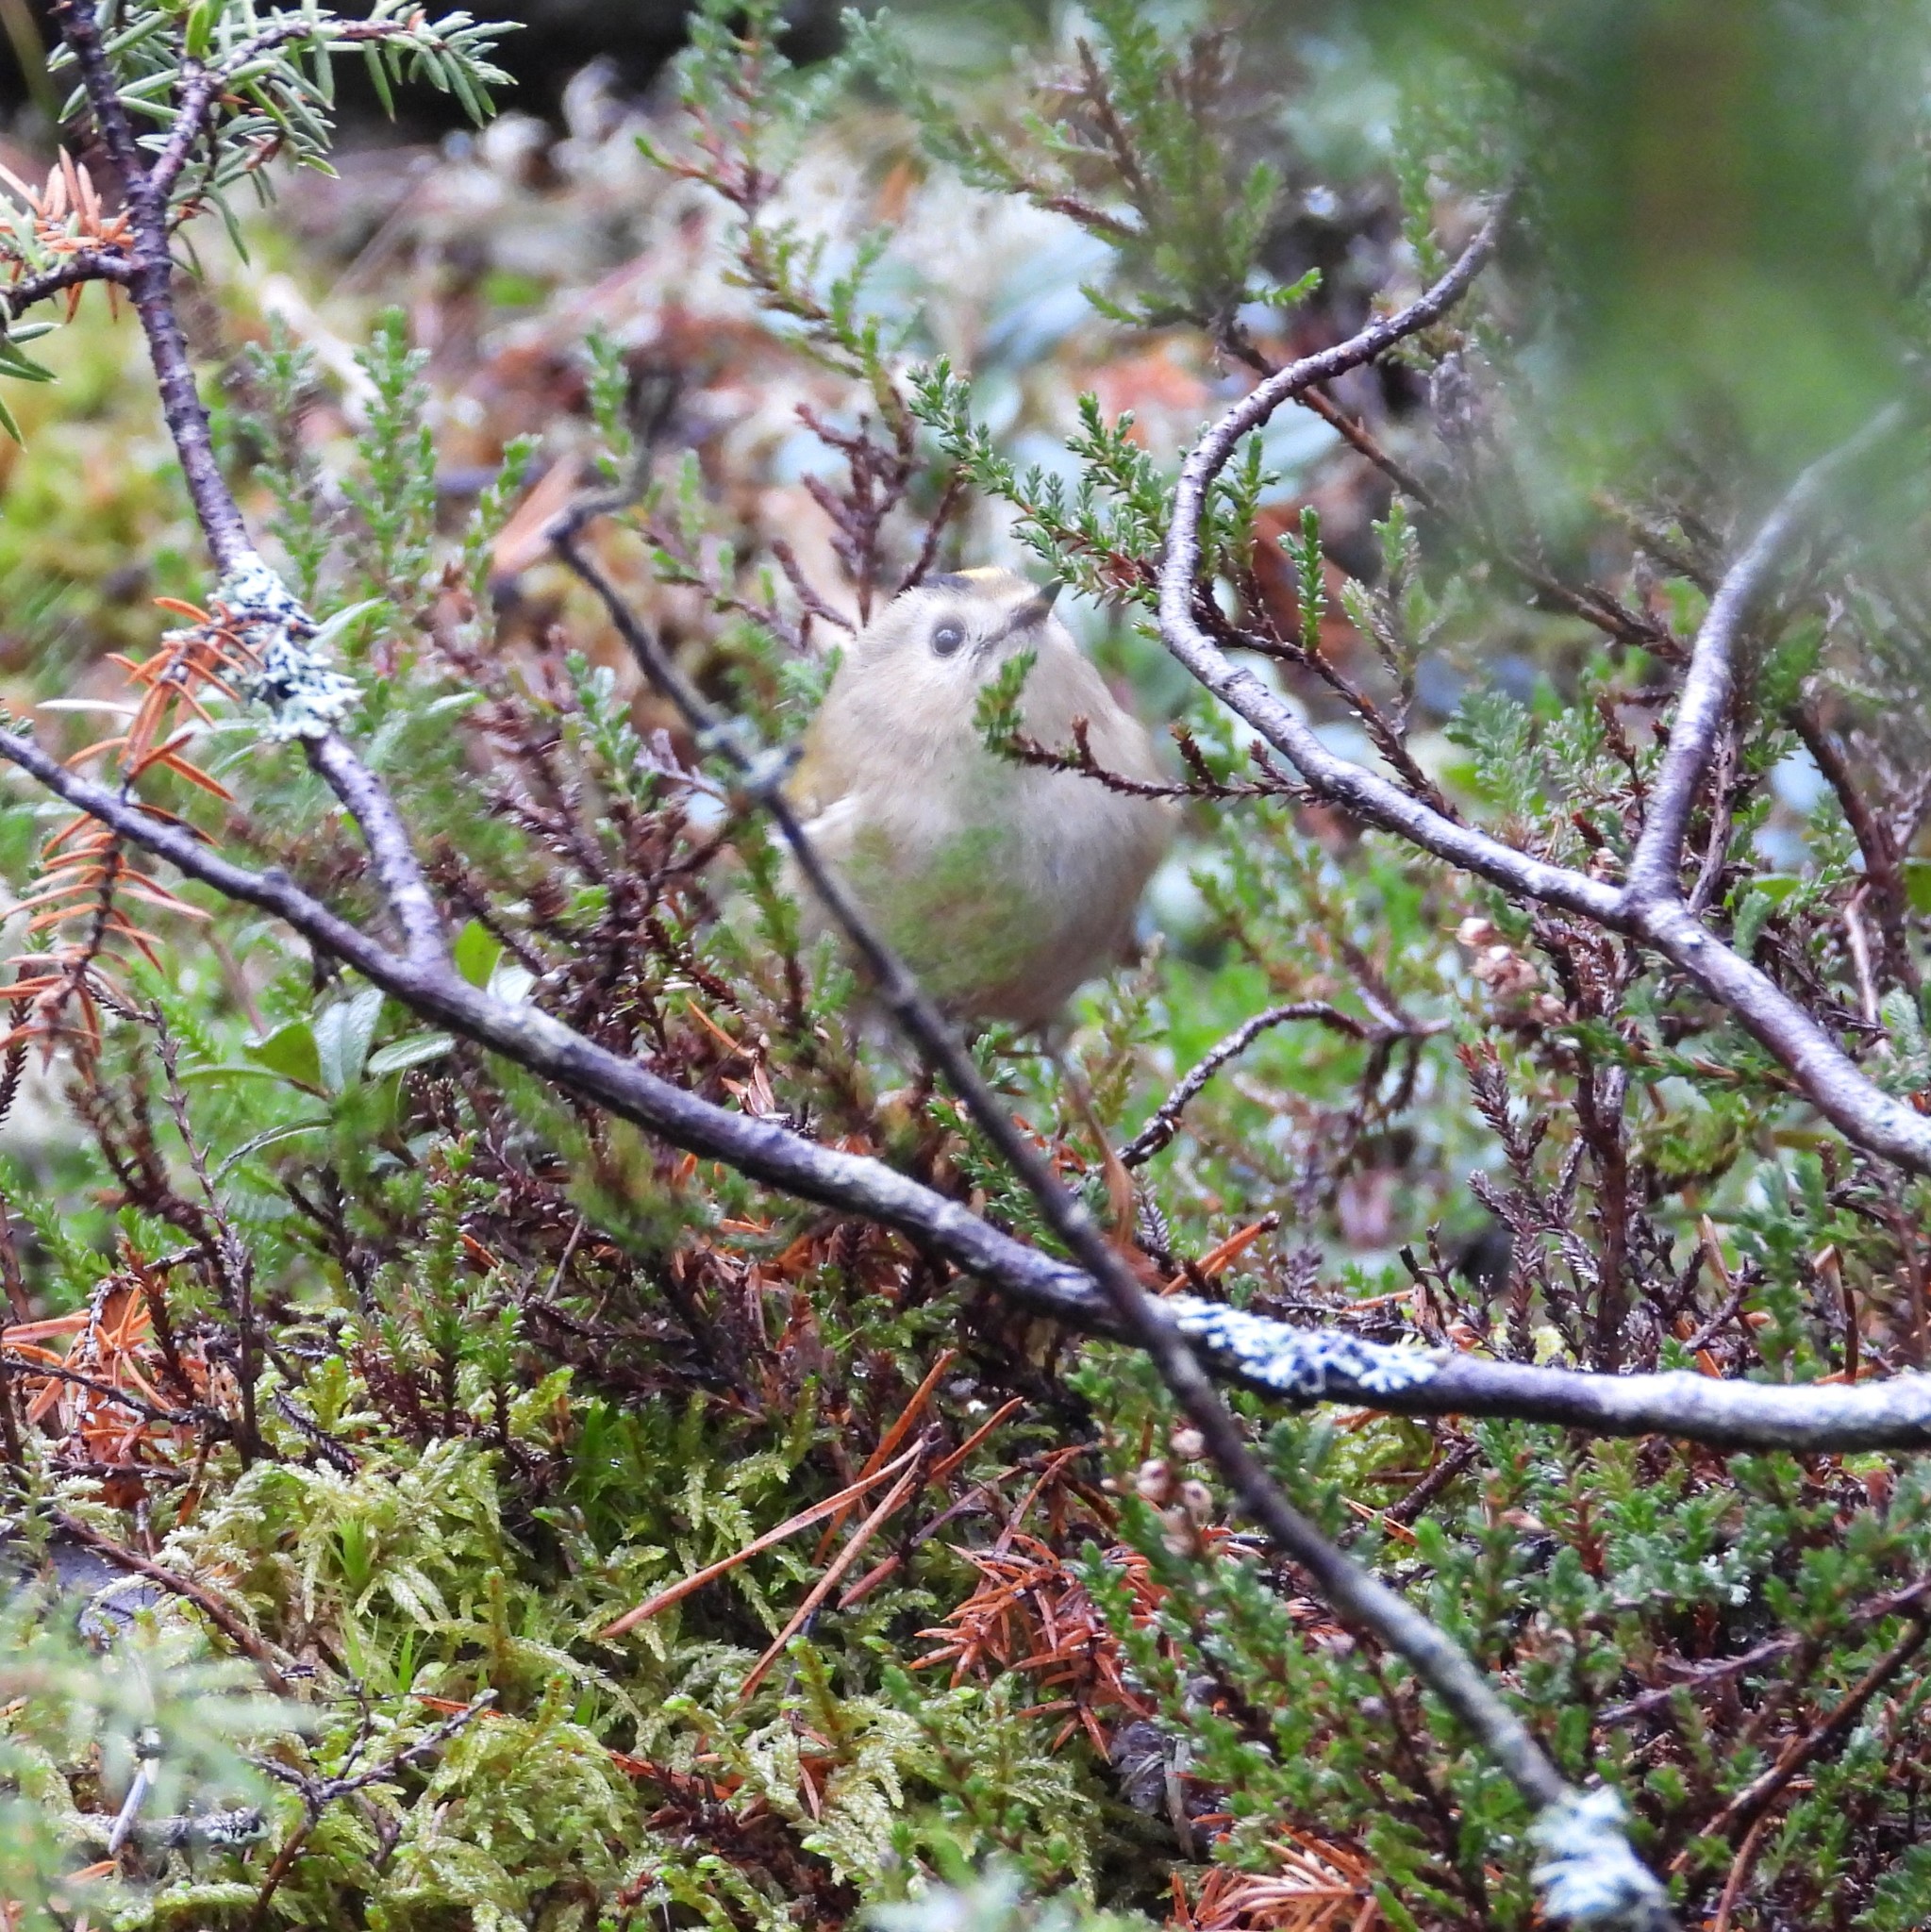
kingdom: Animalia
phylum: Chordata
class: Aves
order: Passeriformes
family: Regulidae
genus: Regulus
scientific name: Regulus regulus
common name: Goldcrest
